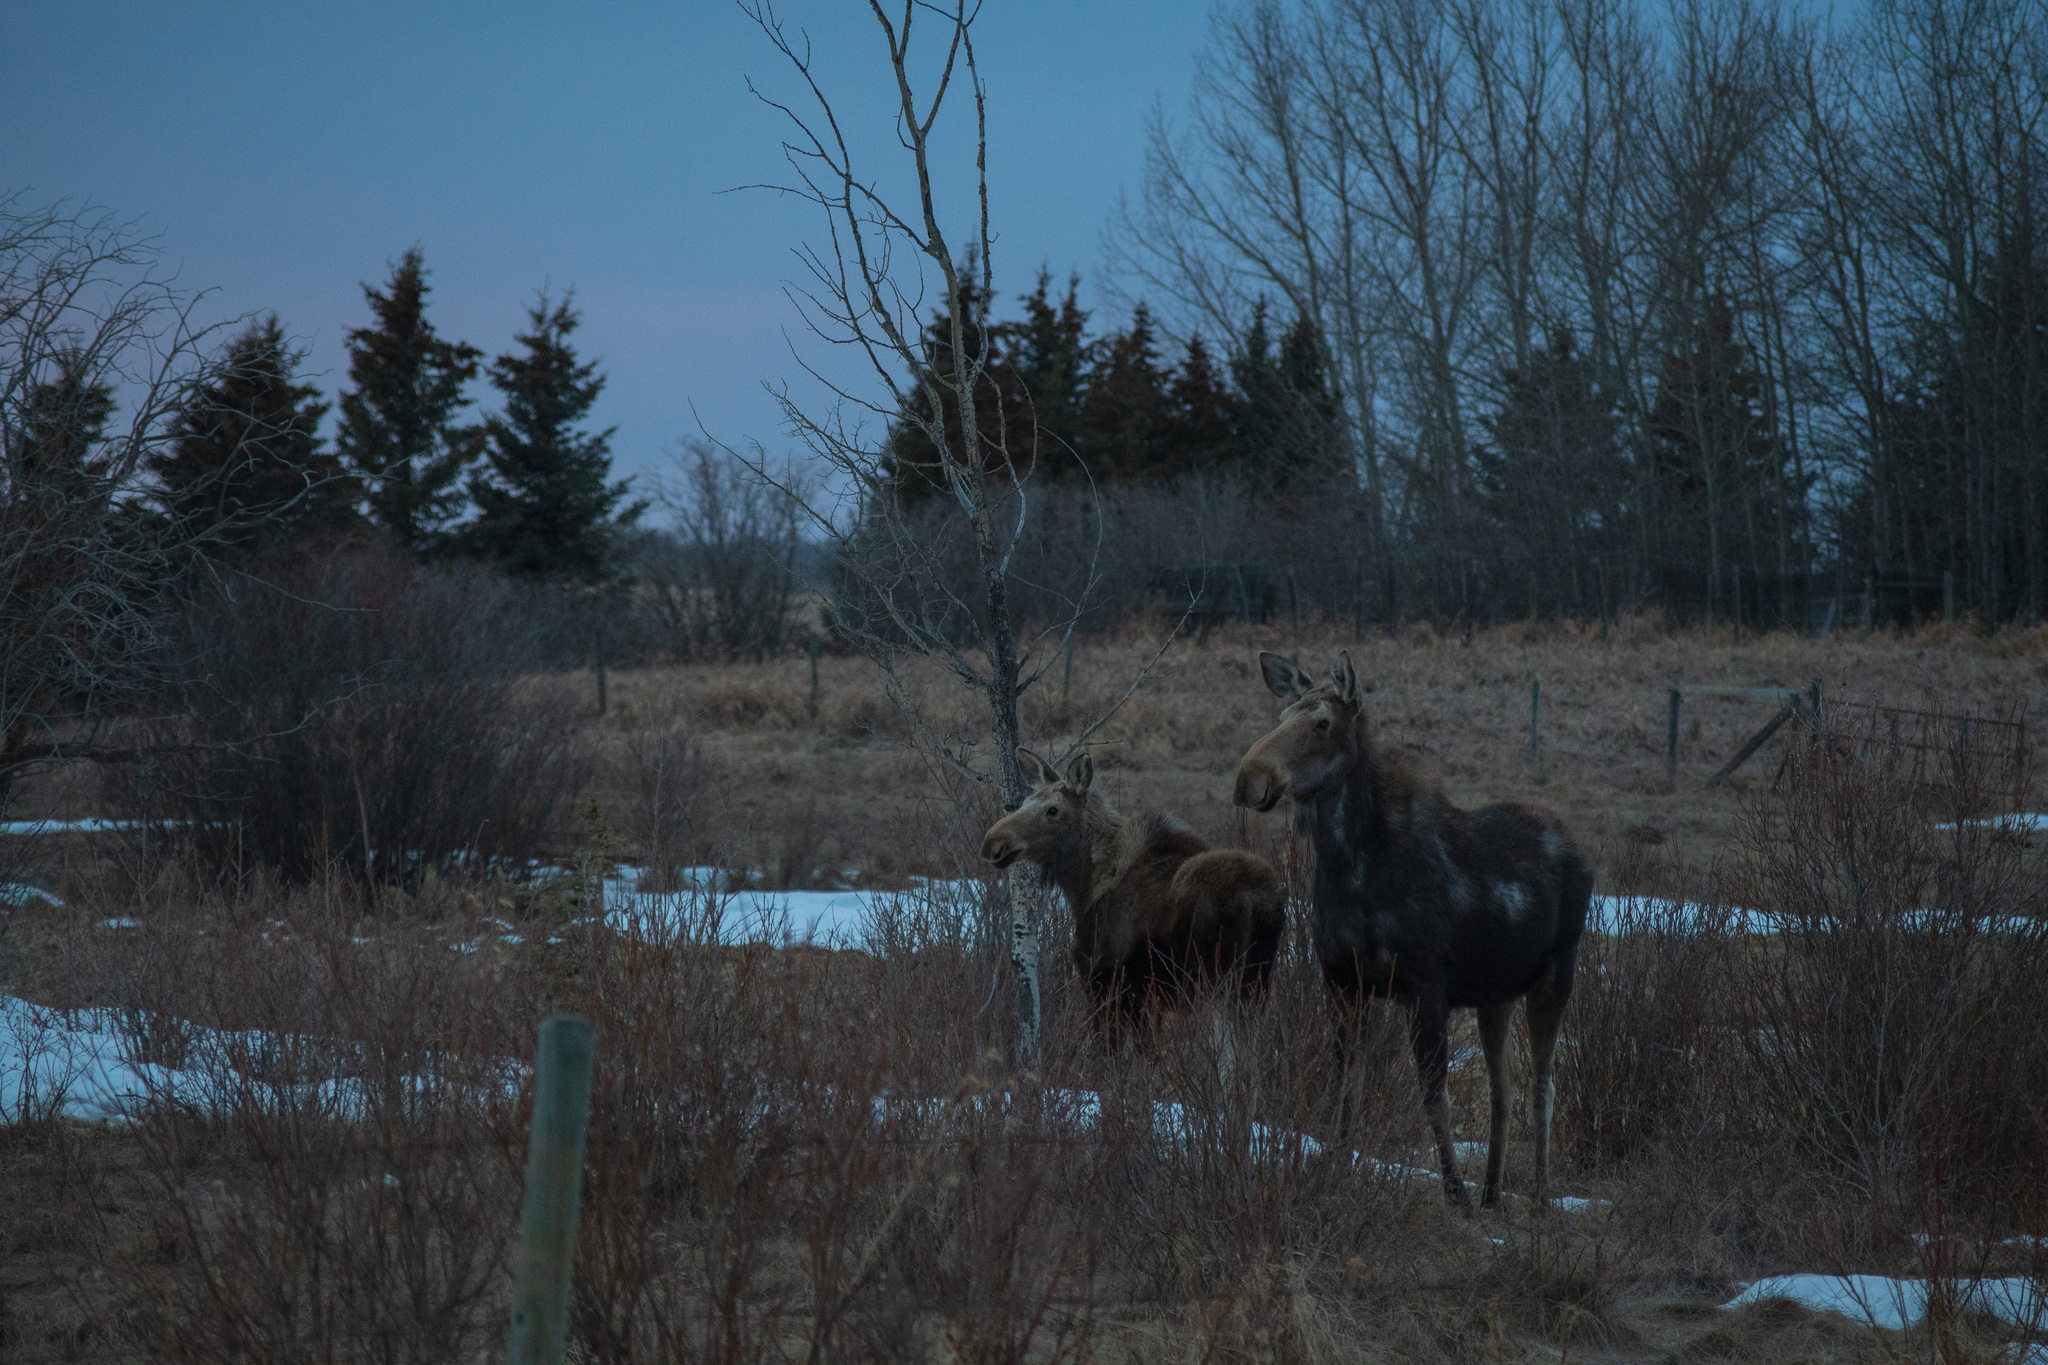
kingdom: Animalia
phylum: Chordata
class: Mammalia
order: Artiodactyla
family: Cervidae
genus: Alces
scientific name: Alces alces
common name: Moose
